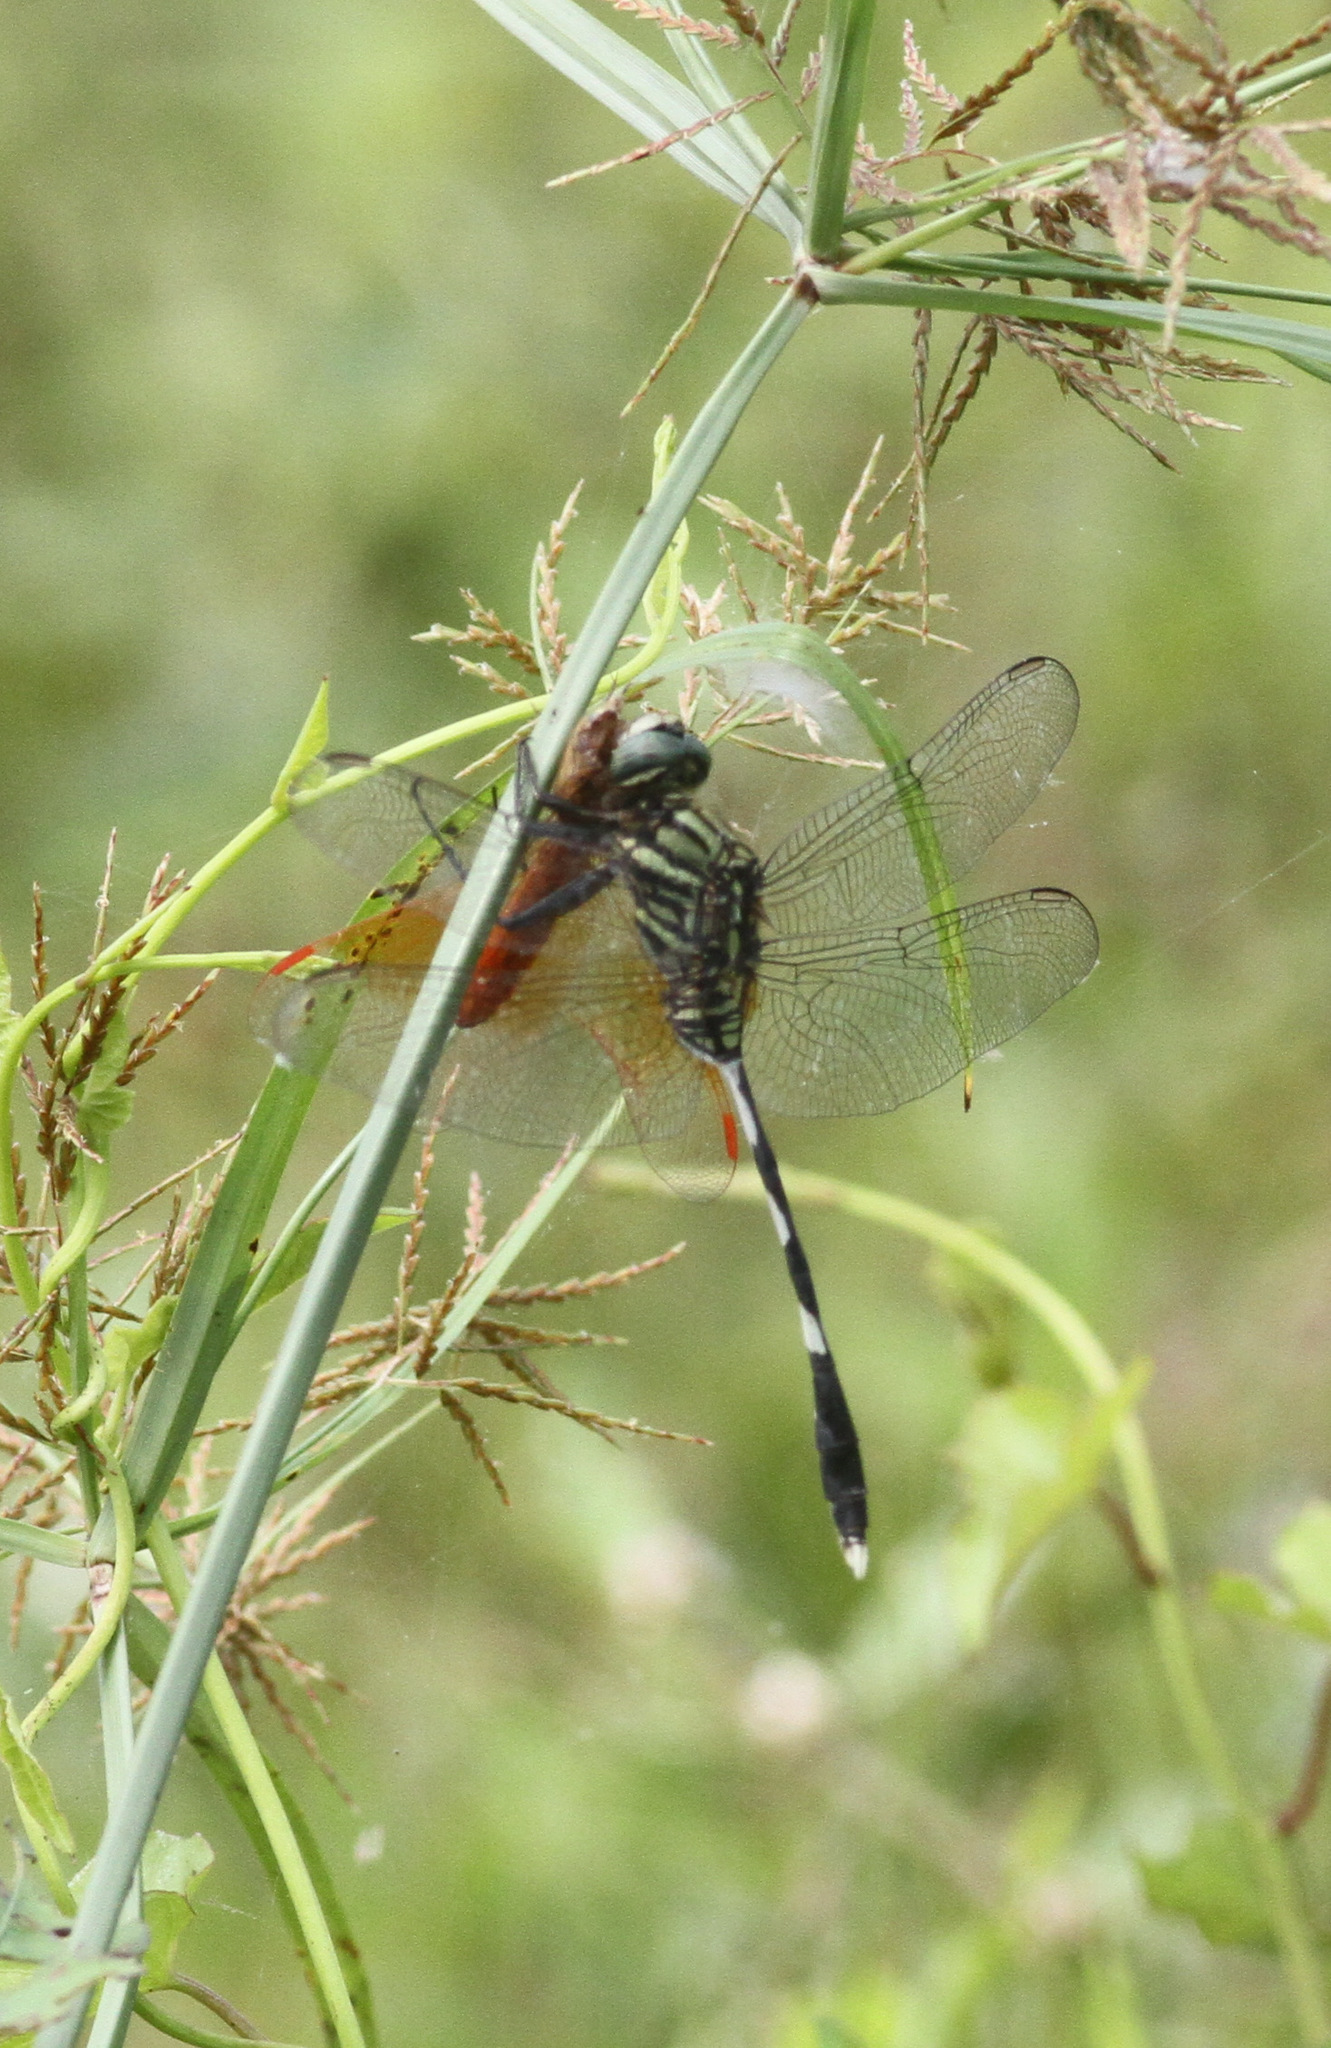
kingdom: Animalia
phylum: Arthropoda
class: Insecta
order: Odonata
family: Libellulidae
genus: Orthetrum
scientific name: Orthetrum sabina
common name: Slender skimmer
